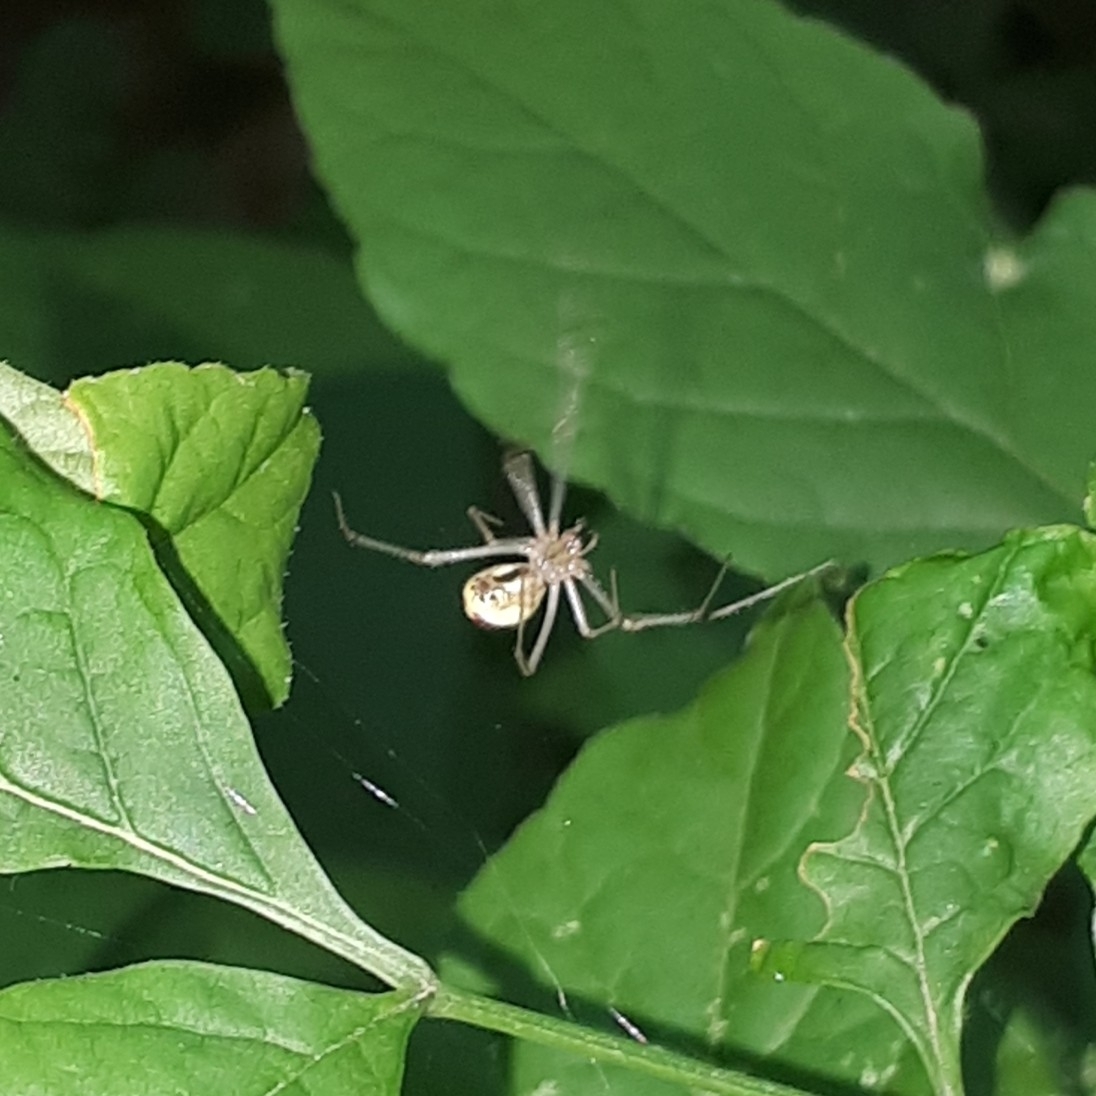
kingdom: Animalia
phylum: Arthropoda
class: Arachnida
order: Araneae
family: Theridiidae
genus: Enoplognatha
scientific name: Enoplognatha ovata
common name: Common candy-striped spider
